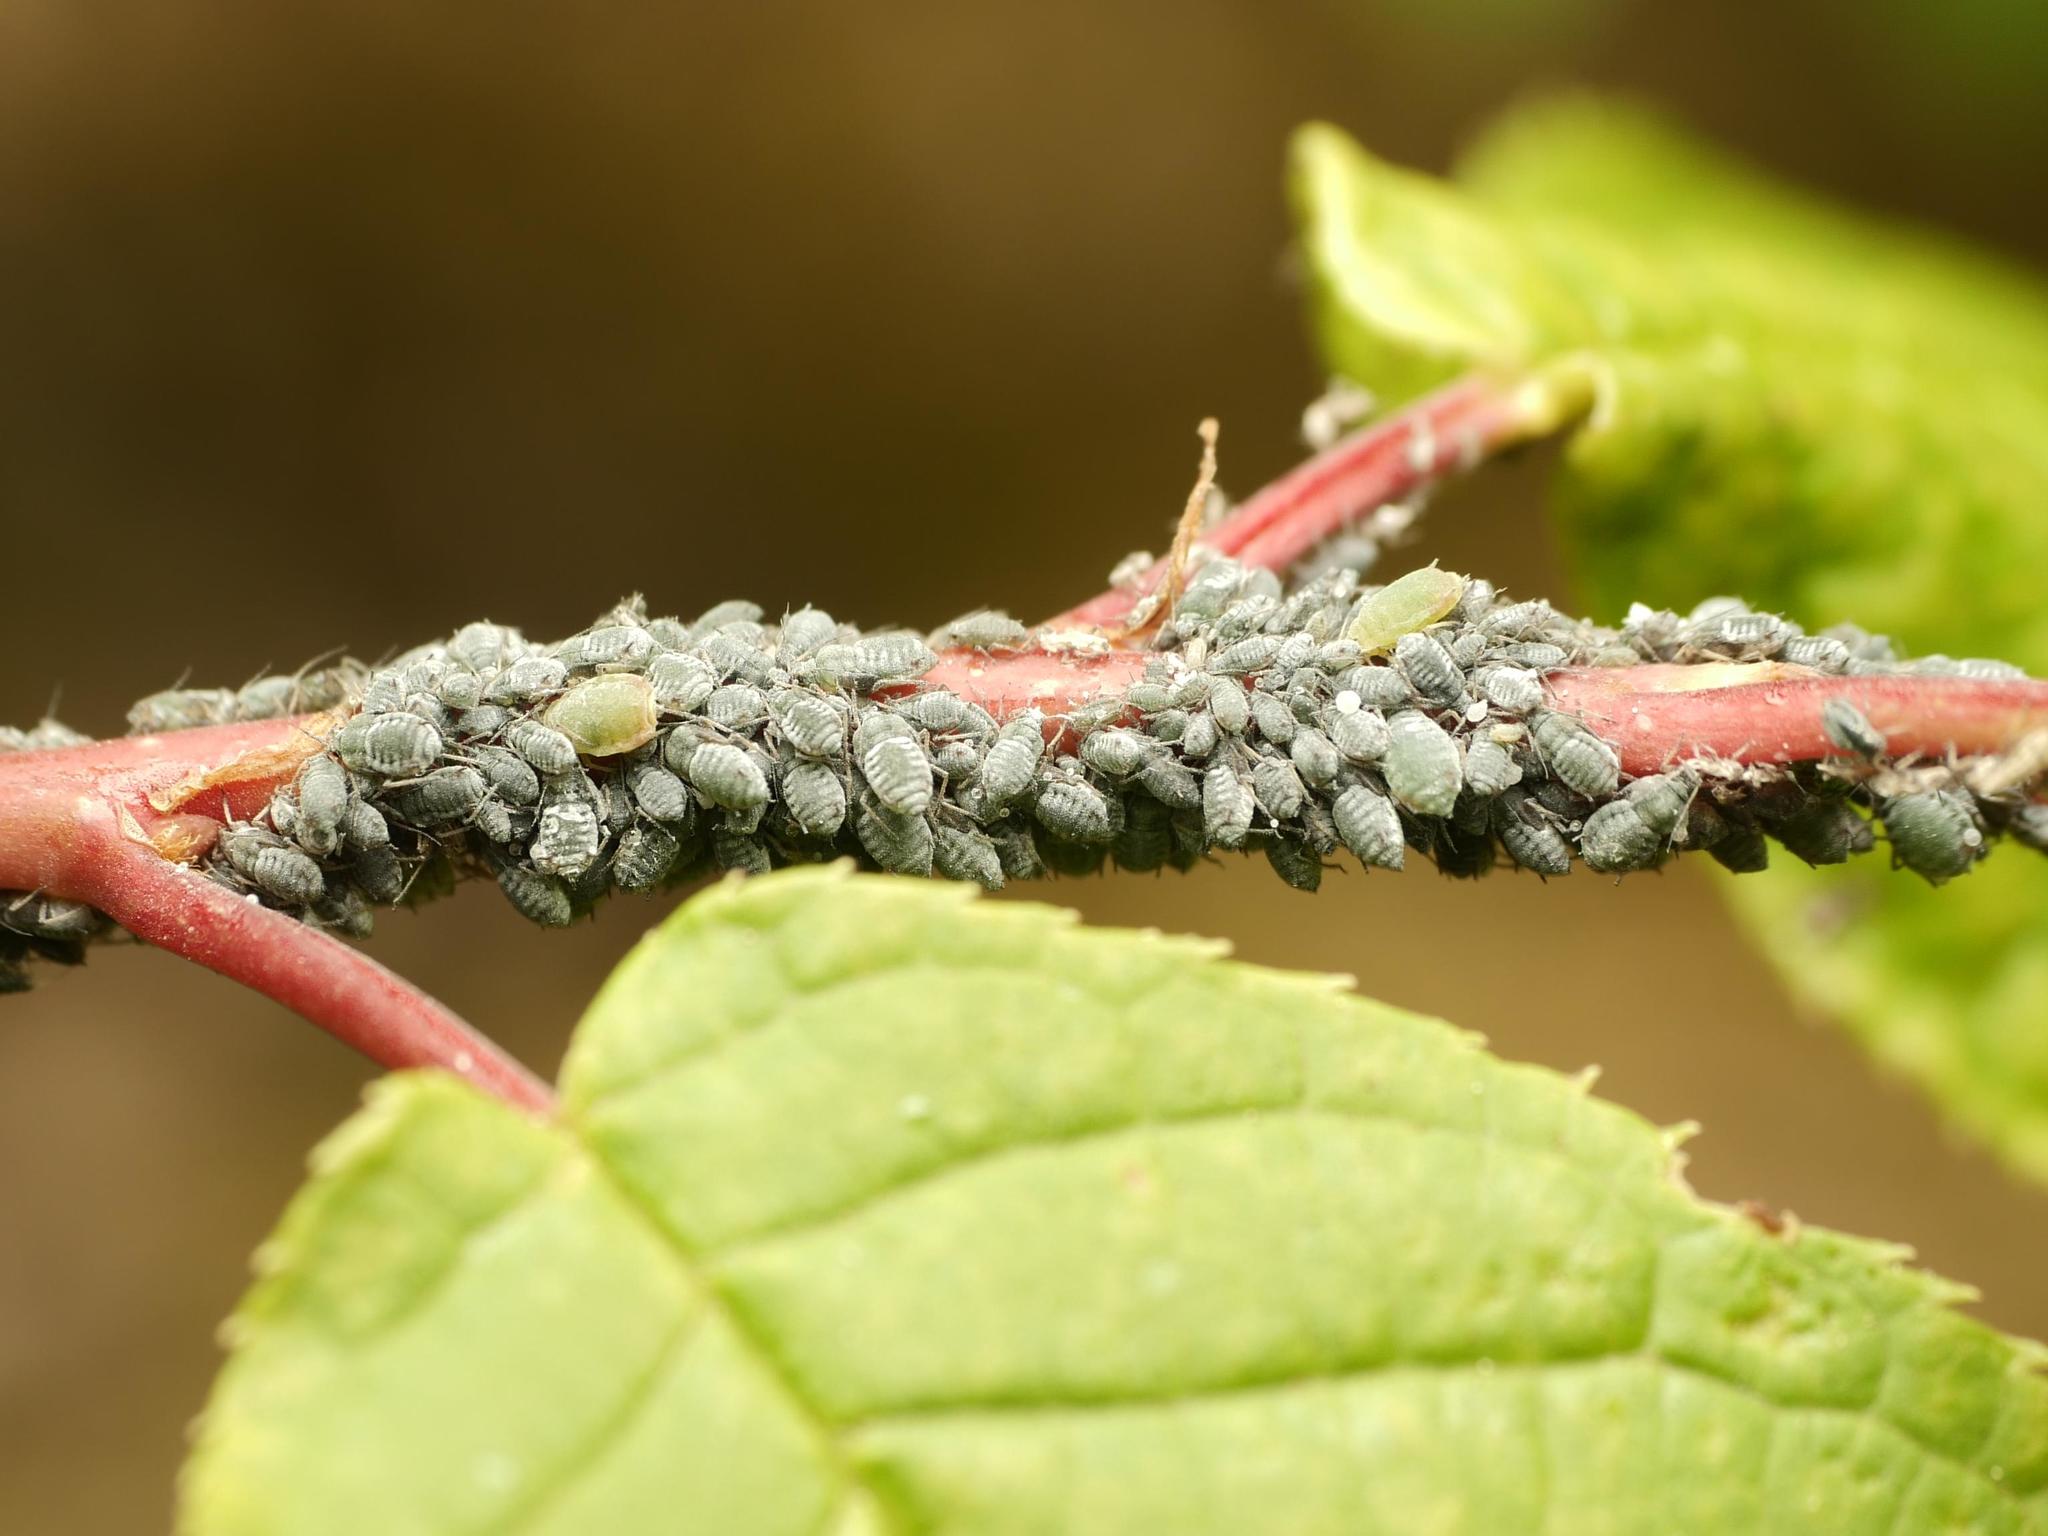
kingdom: Animalia
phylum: Arthropoda
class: Insecta
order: Hemiptera
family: Aphididae
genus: Rhopalosiphum
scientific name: Rhopalosiphum padi
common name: Oat-birdcherry aphid
